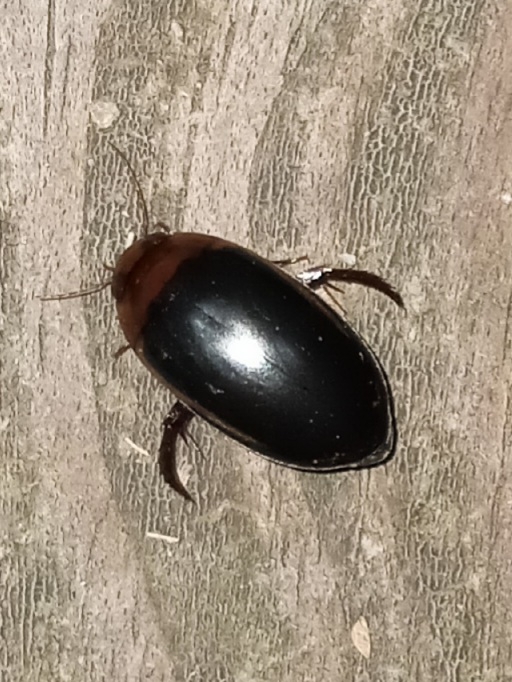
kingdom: Animalia
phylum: Arthropoda
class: Insecta
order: Coleoptera
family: Dytiscidae
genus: Hydaticus
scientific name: Hydaticus bimarginatus
